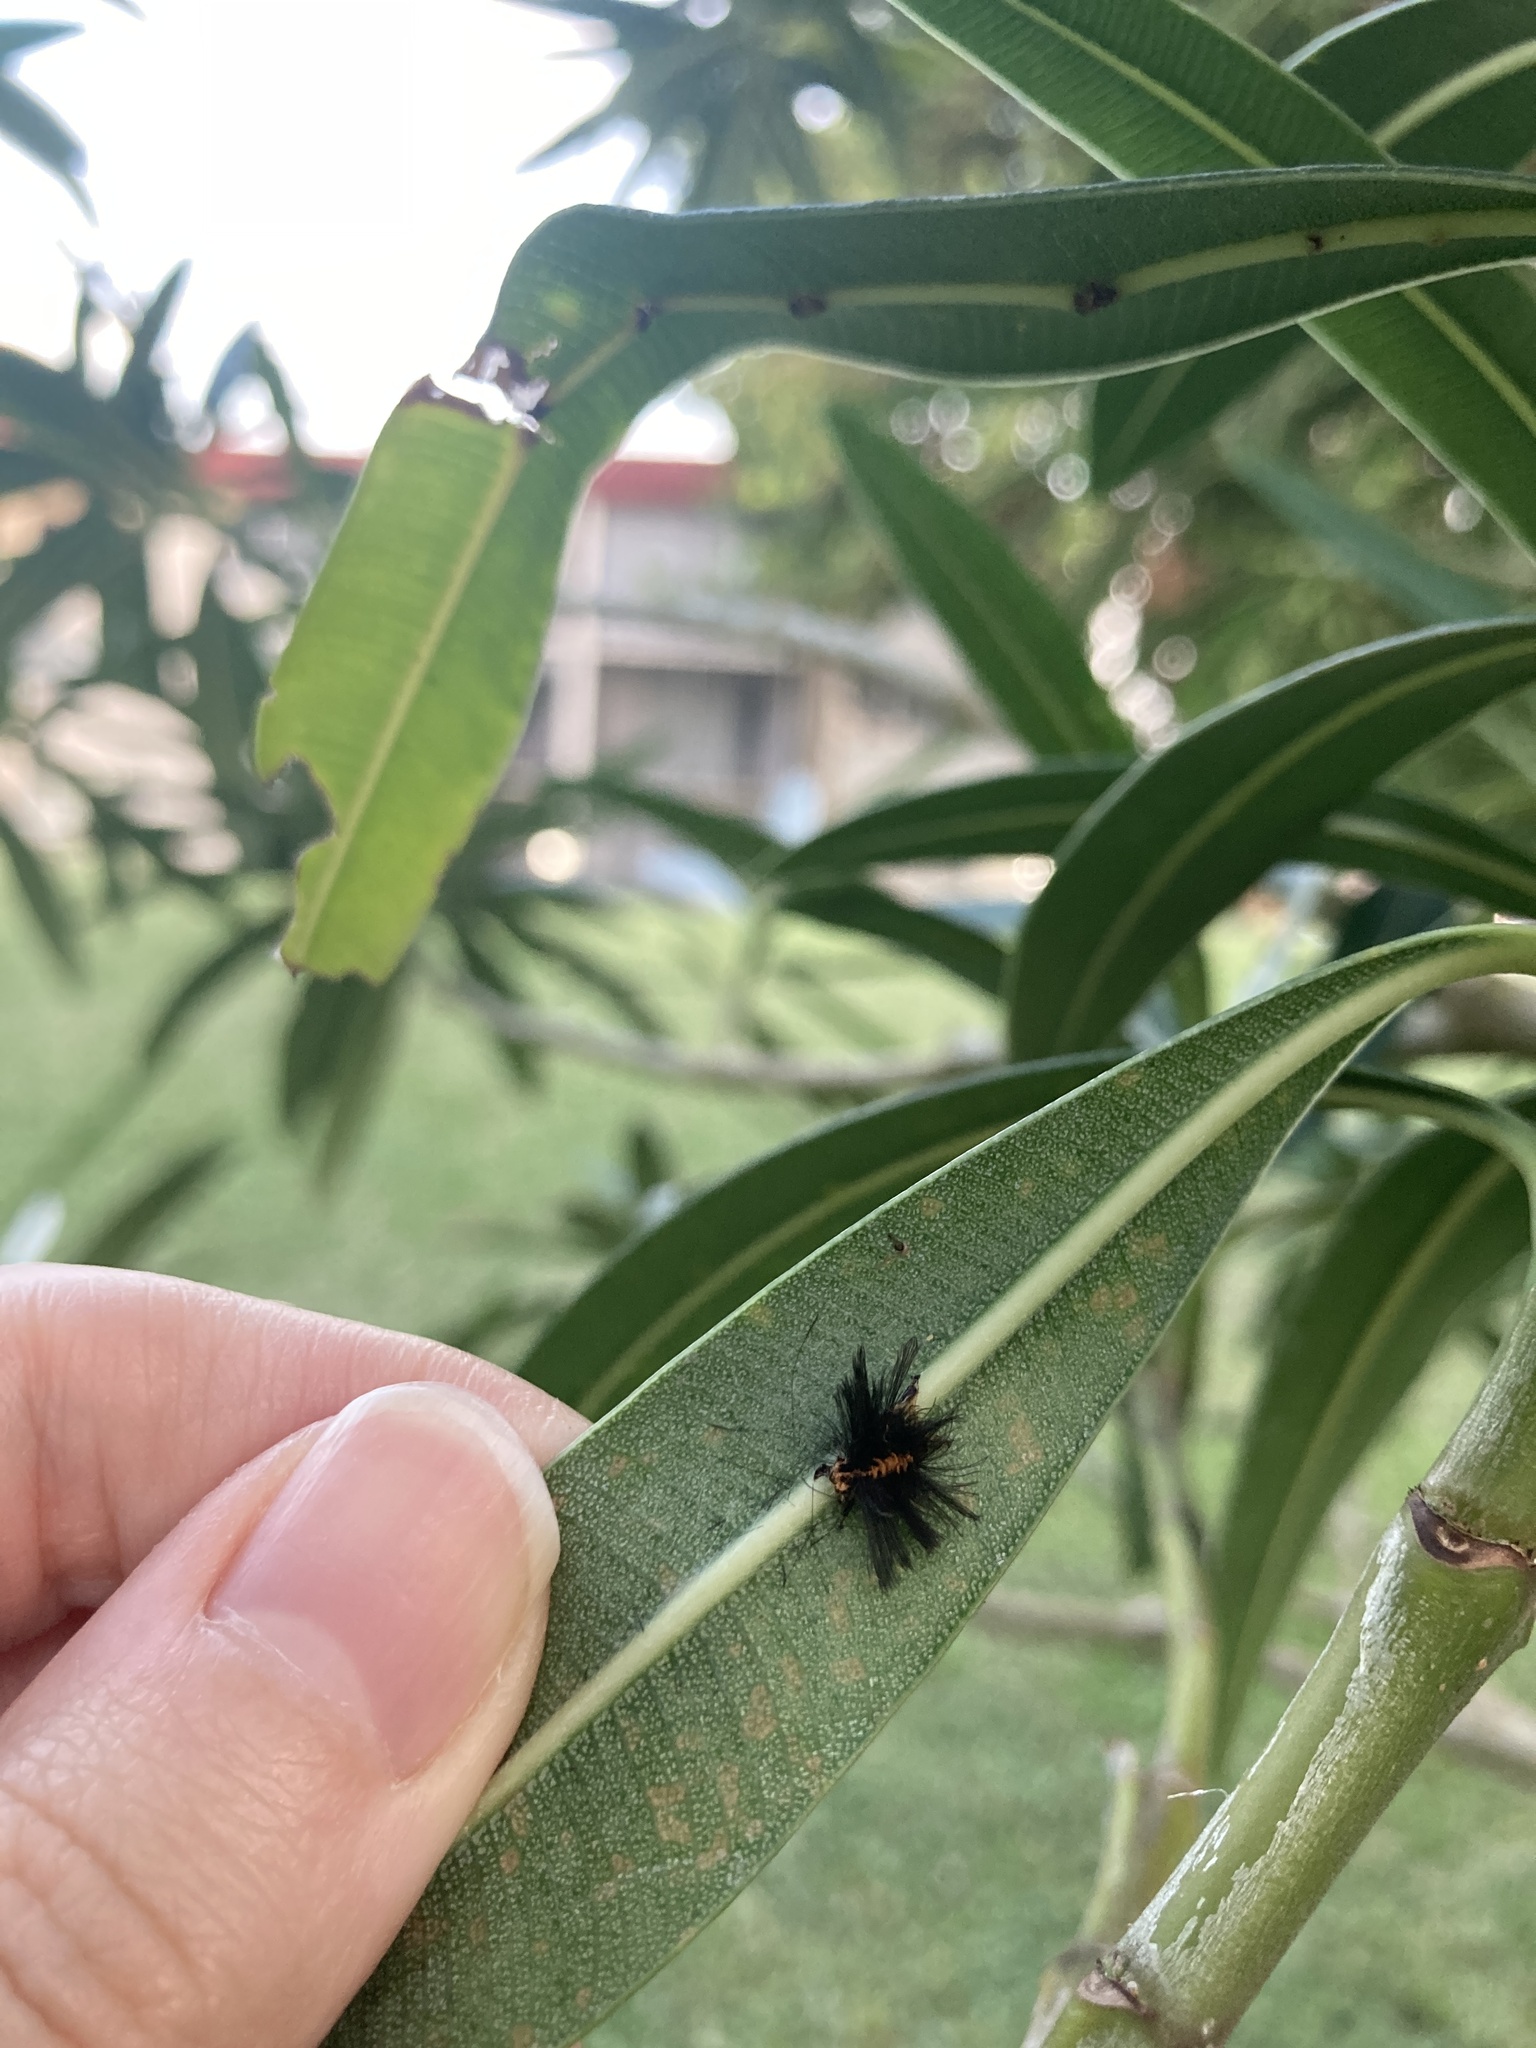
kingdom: Animalia
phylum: Arthropoda
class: Insecta
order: Lepidoptera
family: Erebidae
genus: Syntomeida
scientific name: Syntomeida epilais
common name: Polka-dot wasp moth
